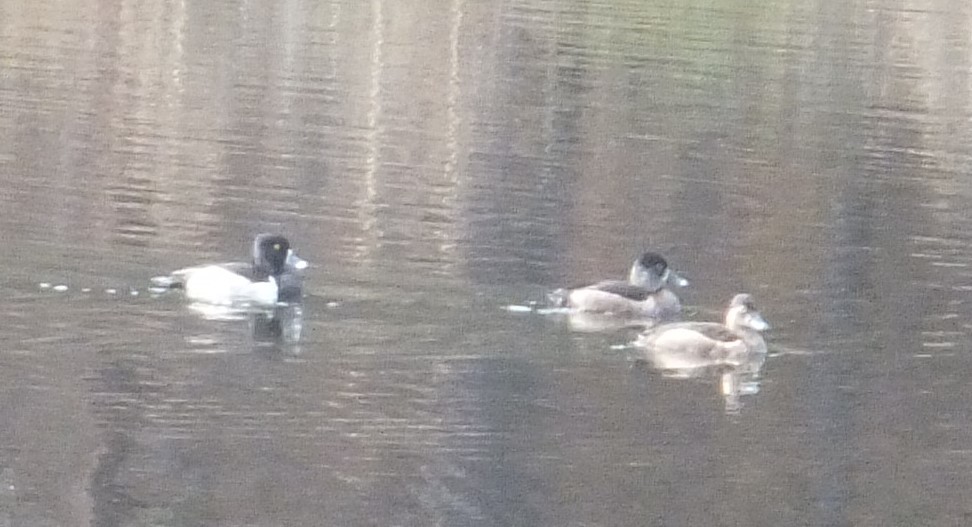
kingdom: Animalia
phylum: Chordata
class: Aves
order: Anseriformes
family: Anatidae
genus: Aythya
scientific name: Aythya collaris
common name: Ring-necked duck
